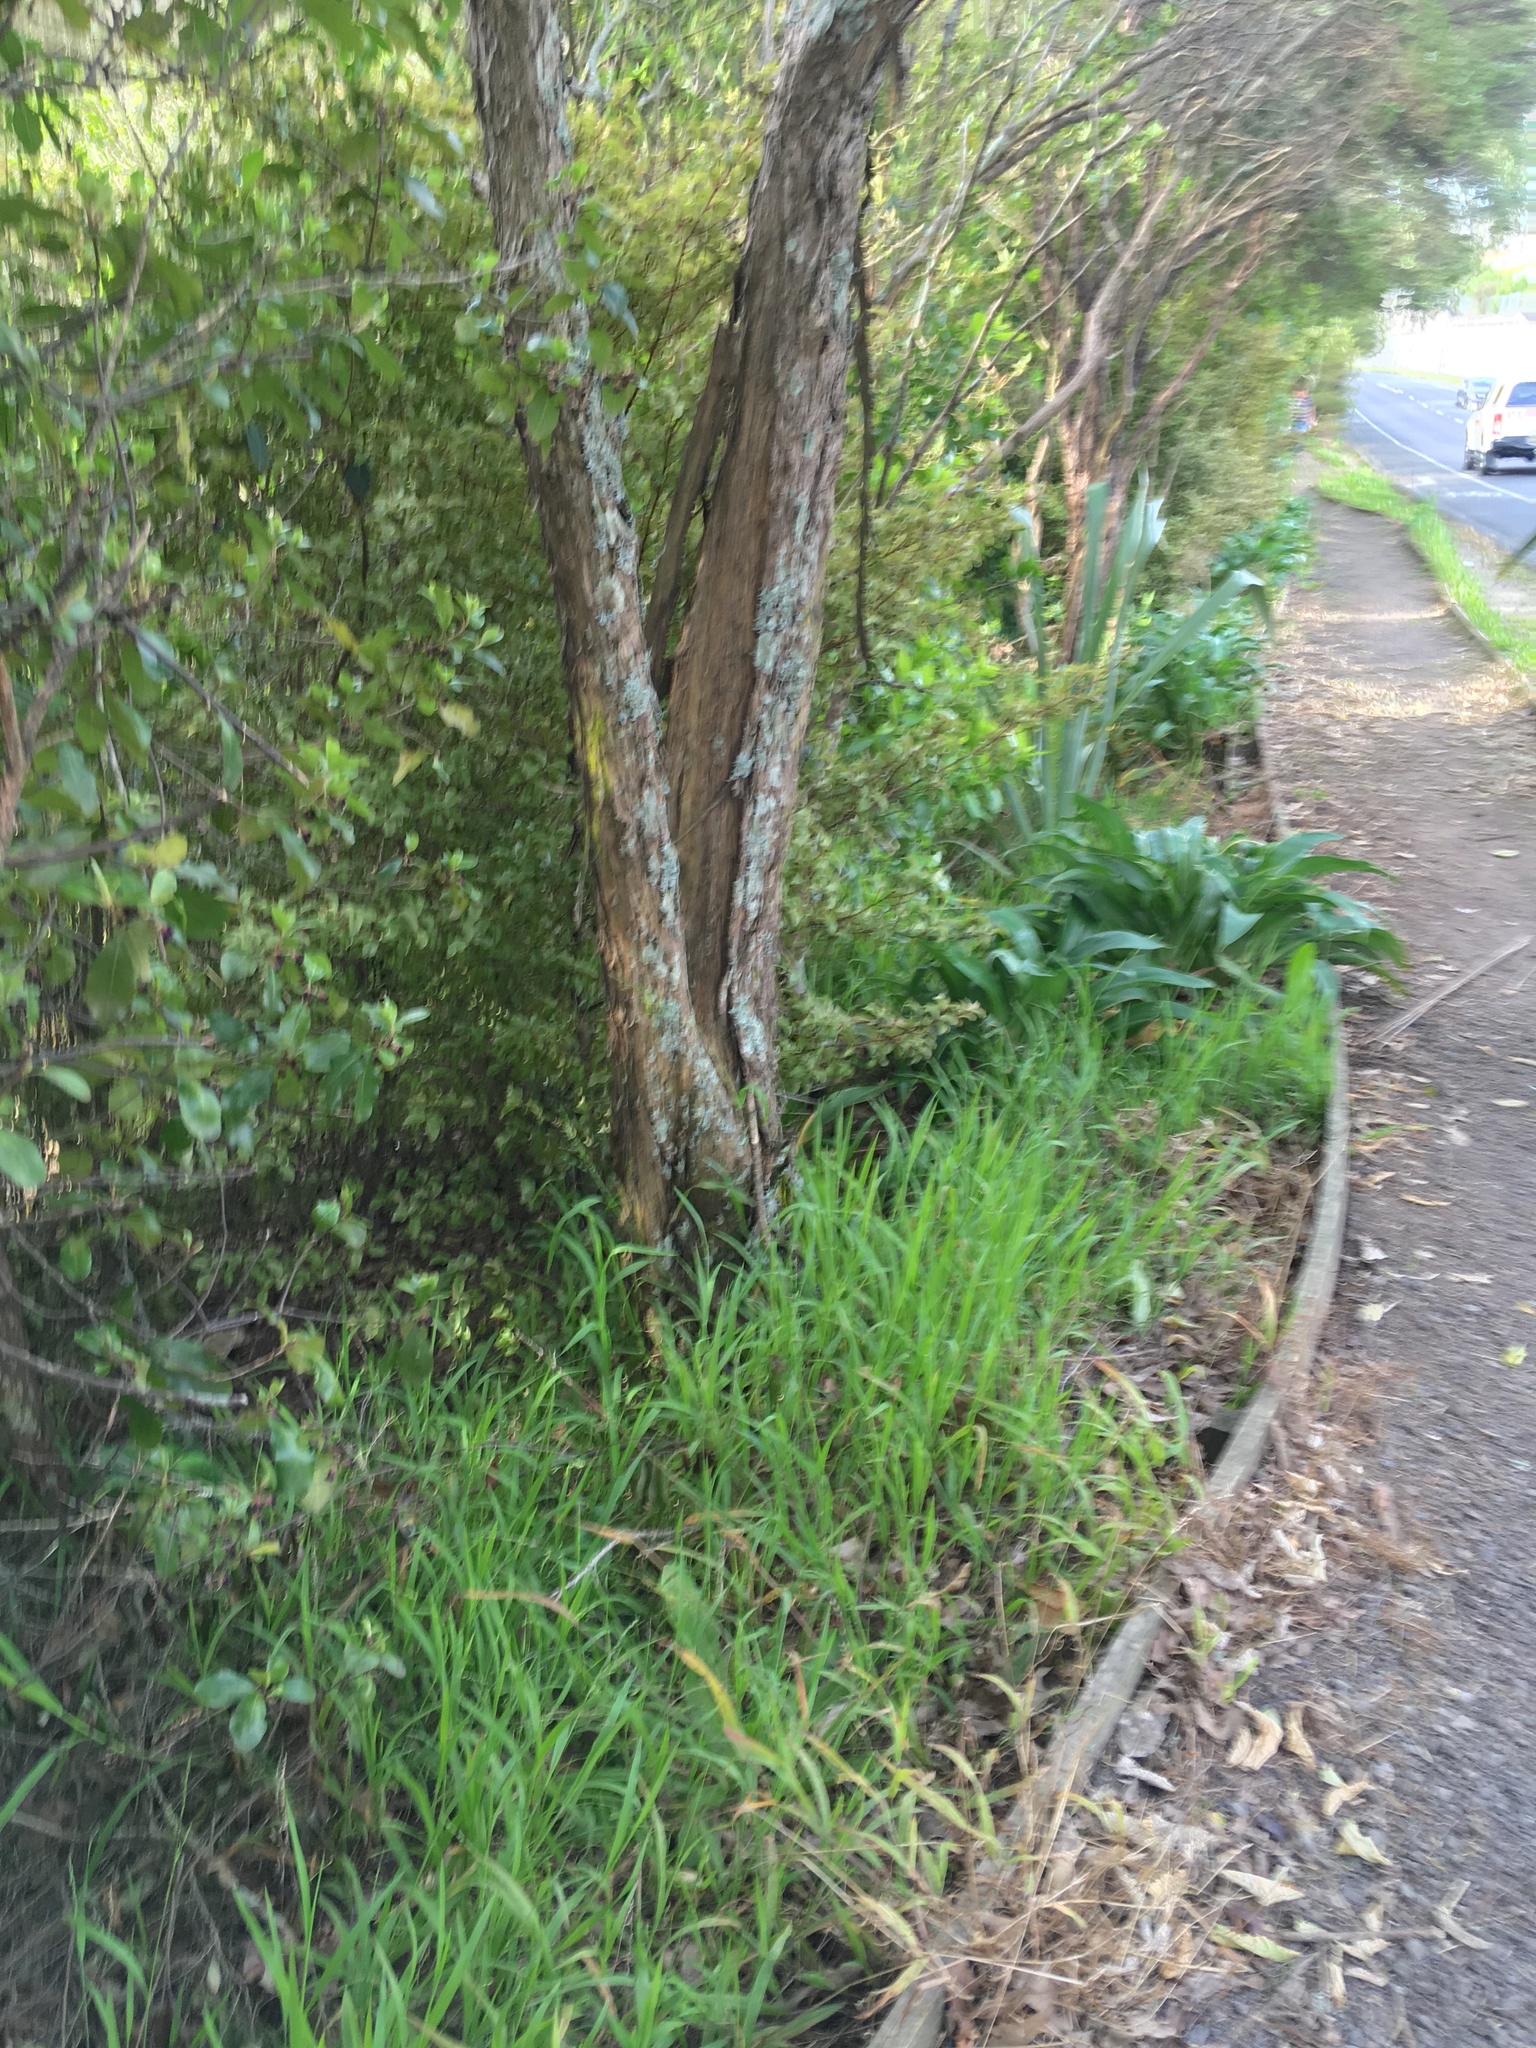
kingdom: Plantae
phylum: Tracheophyta
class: Liliopsida
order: Poales
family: Poaceae
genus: Ehrharta
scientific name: Ehrharta erecta
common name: Panic veldtgrass
